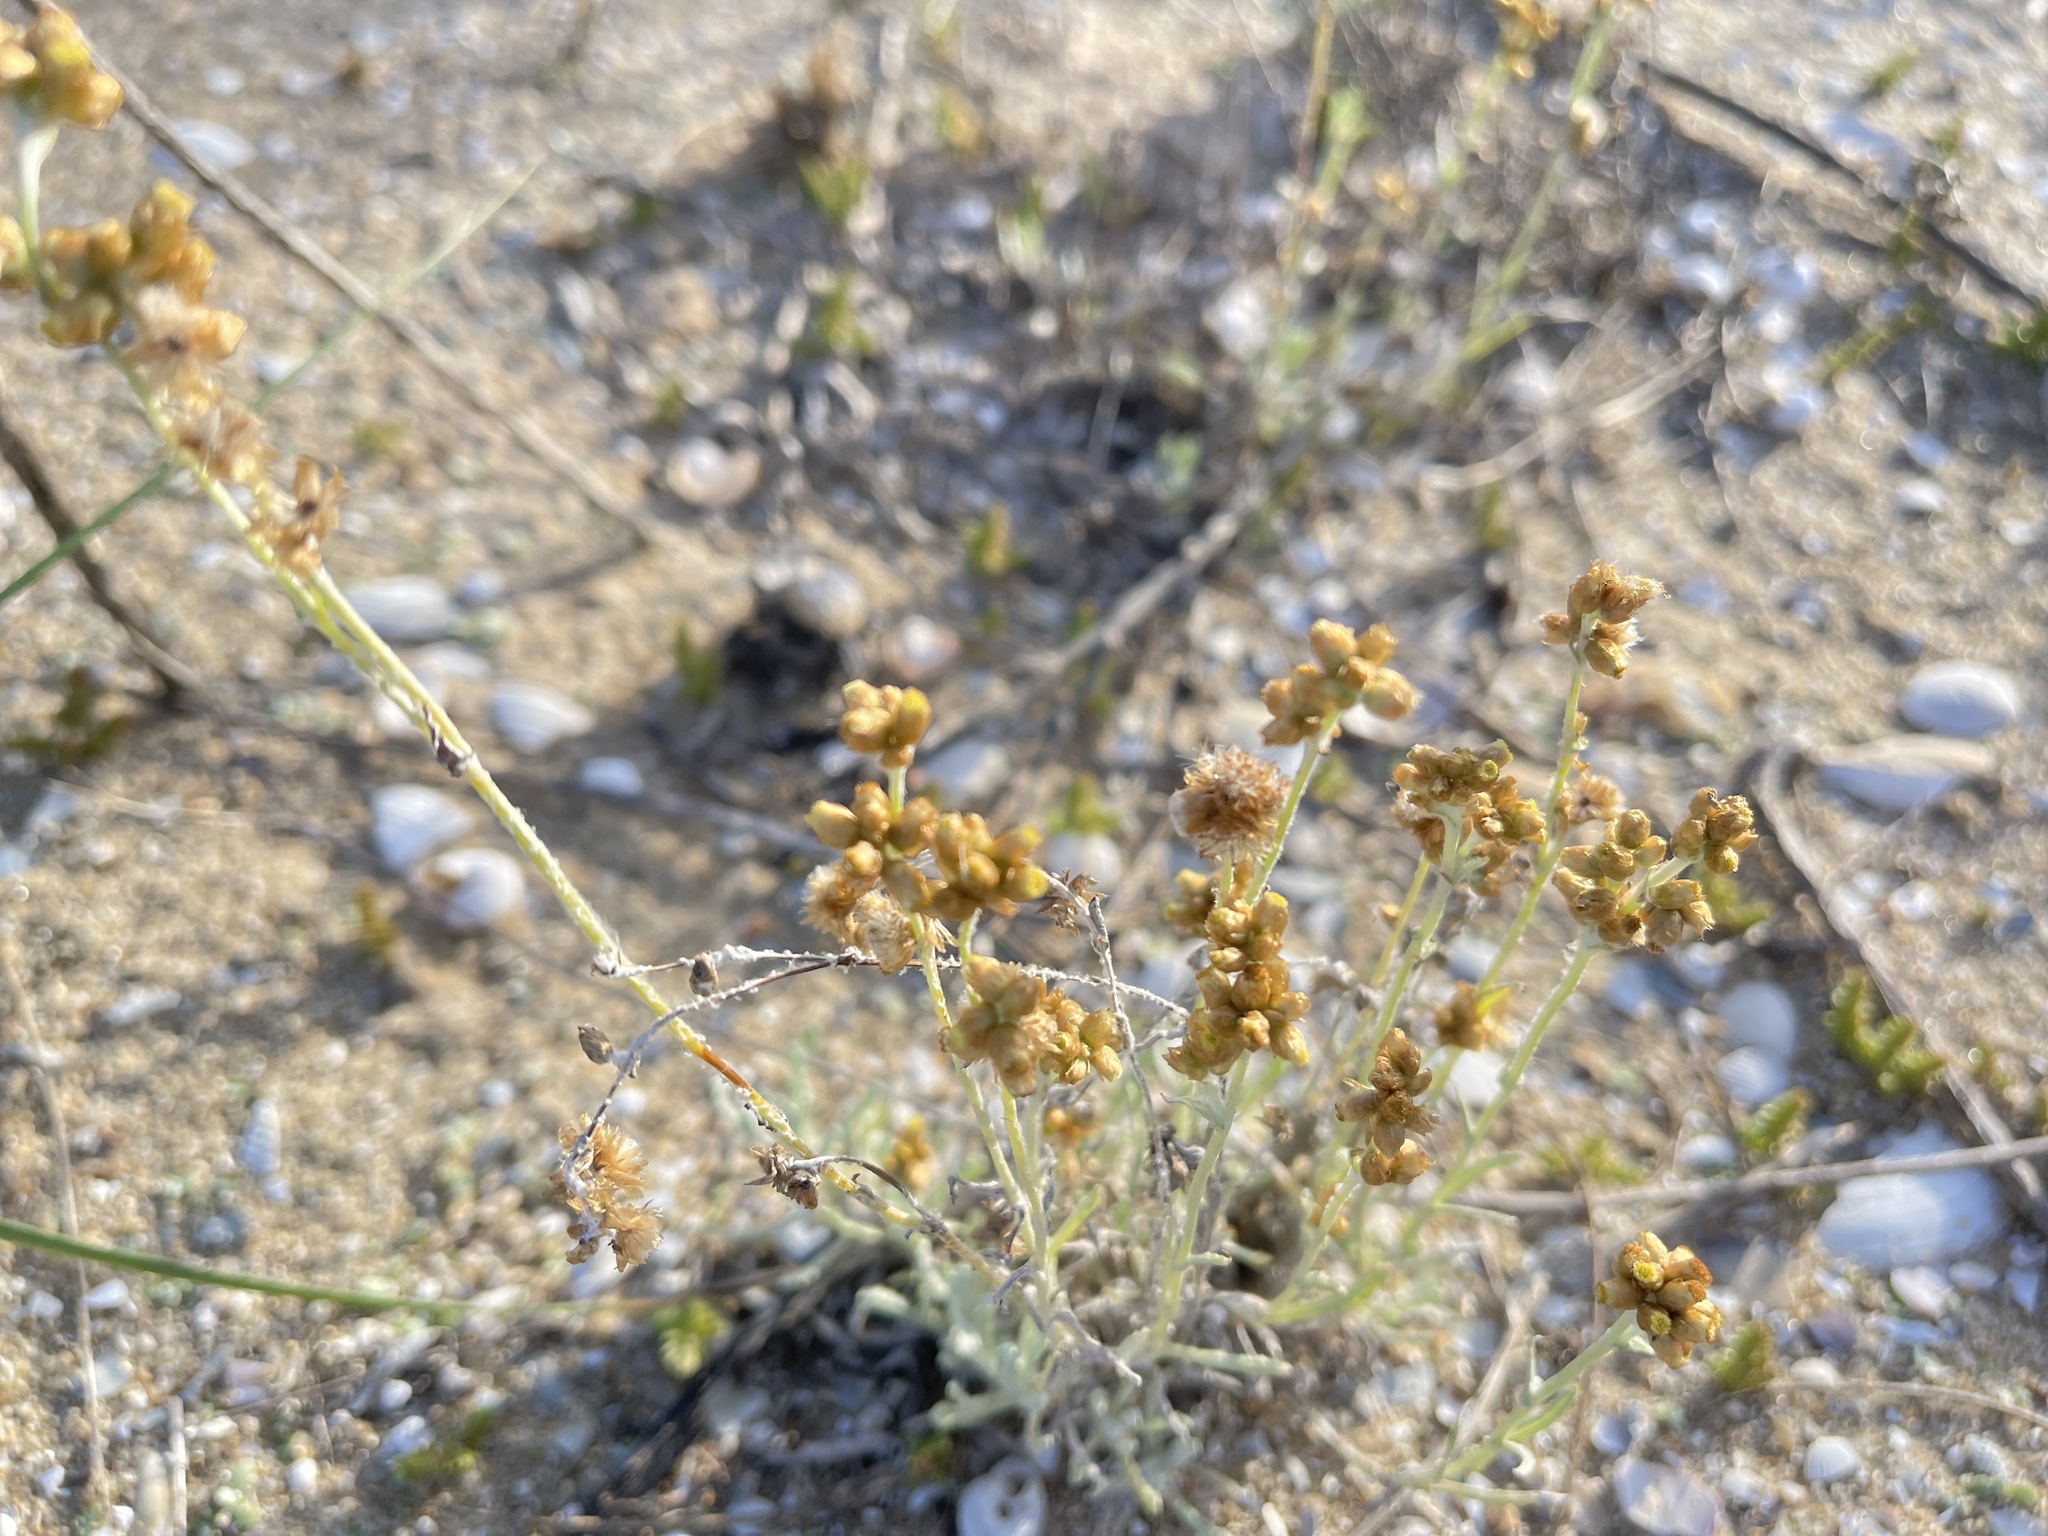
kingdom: Plantae
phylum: Tracheophyta
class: Magnoliopsida
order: Asterales
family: Asteraceae
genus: Helichrysum
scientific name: Helichrysum luteoalbum
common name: Daisy
